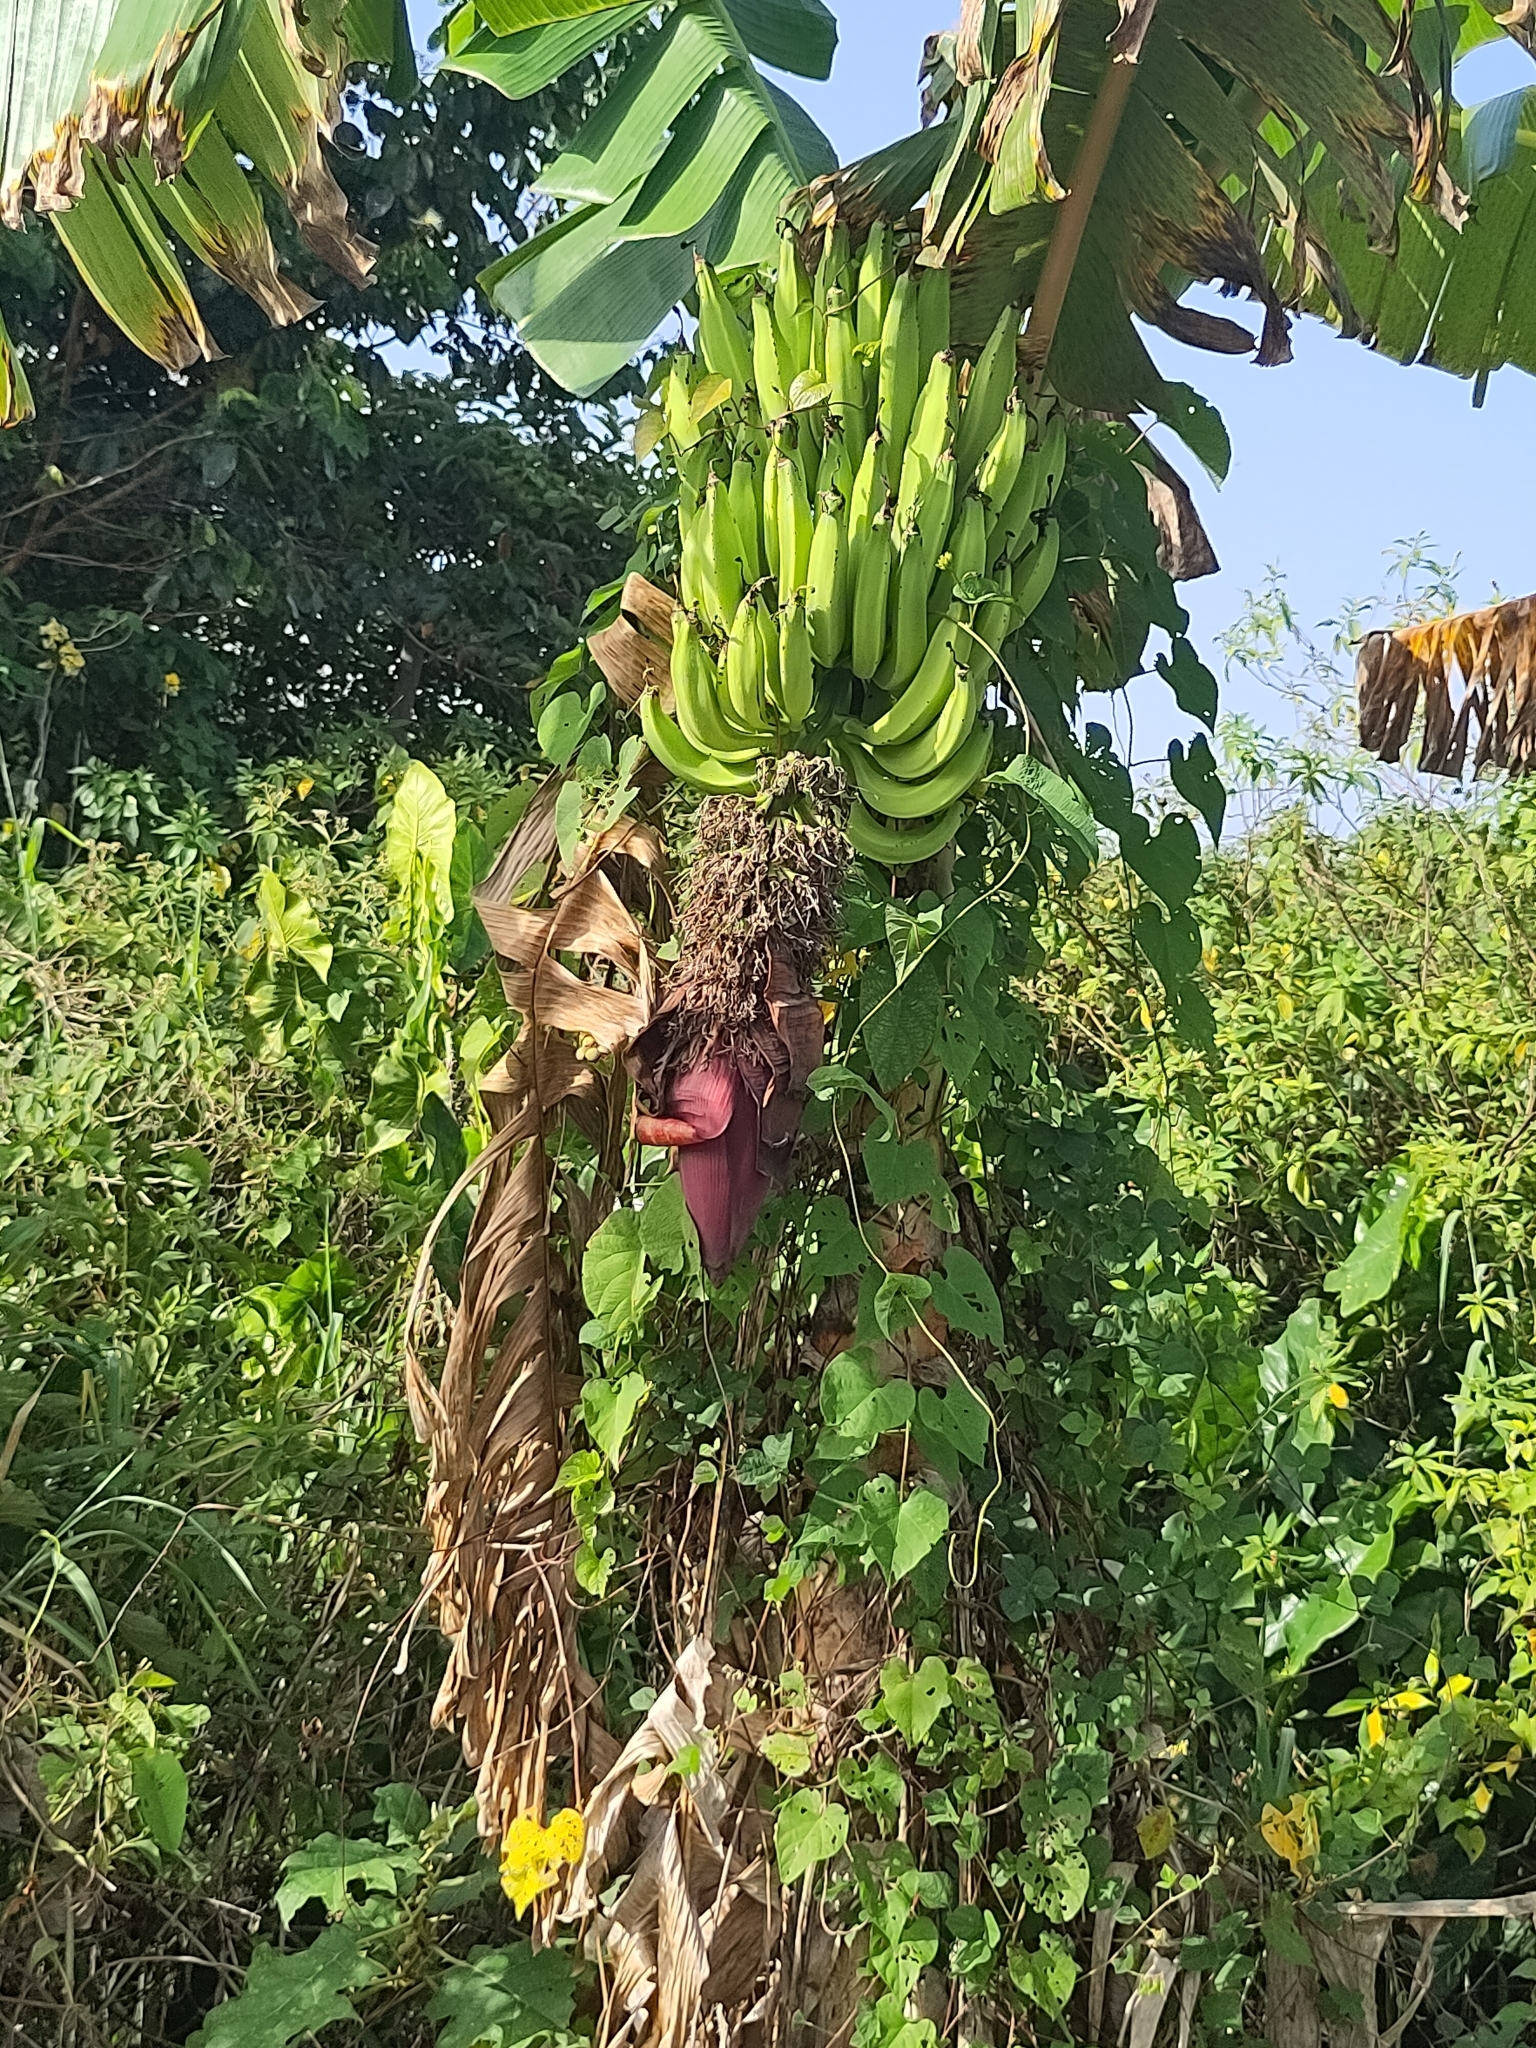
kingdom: Plantae
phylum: Tracheophyta
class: Liliopsida
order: Zingiberales
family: Musaceae
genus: Musa
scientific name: Musa paradisiaca
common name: French plantain
